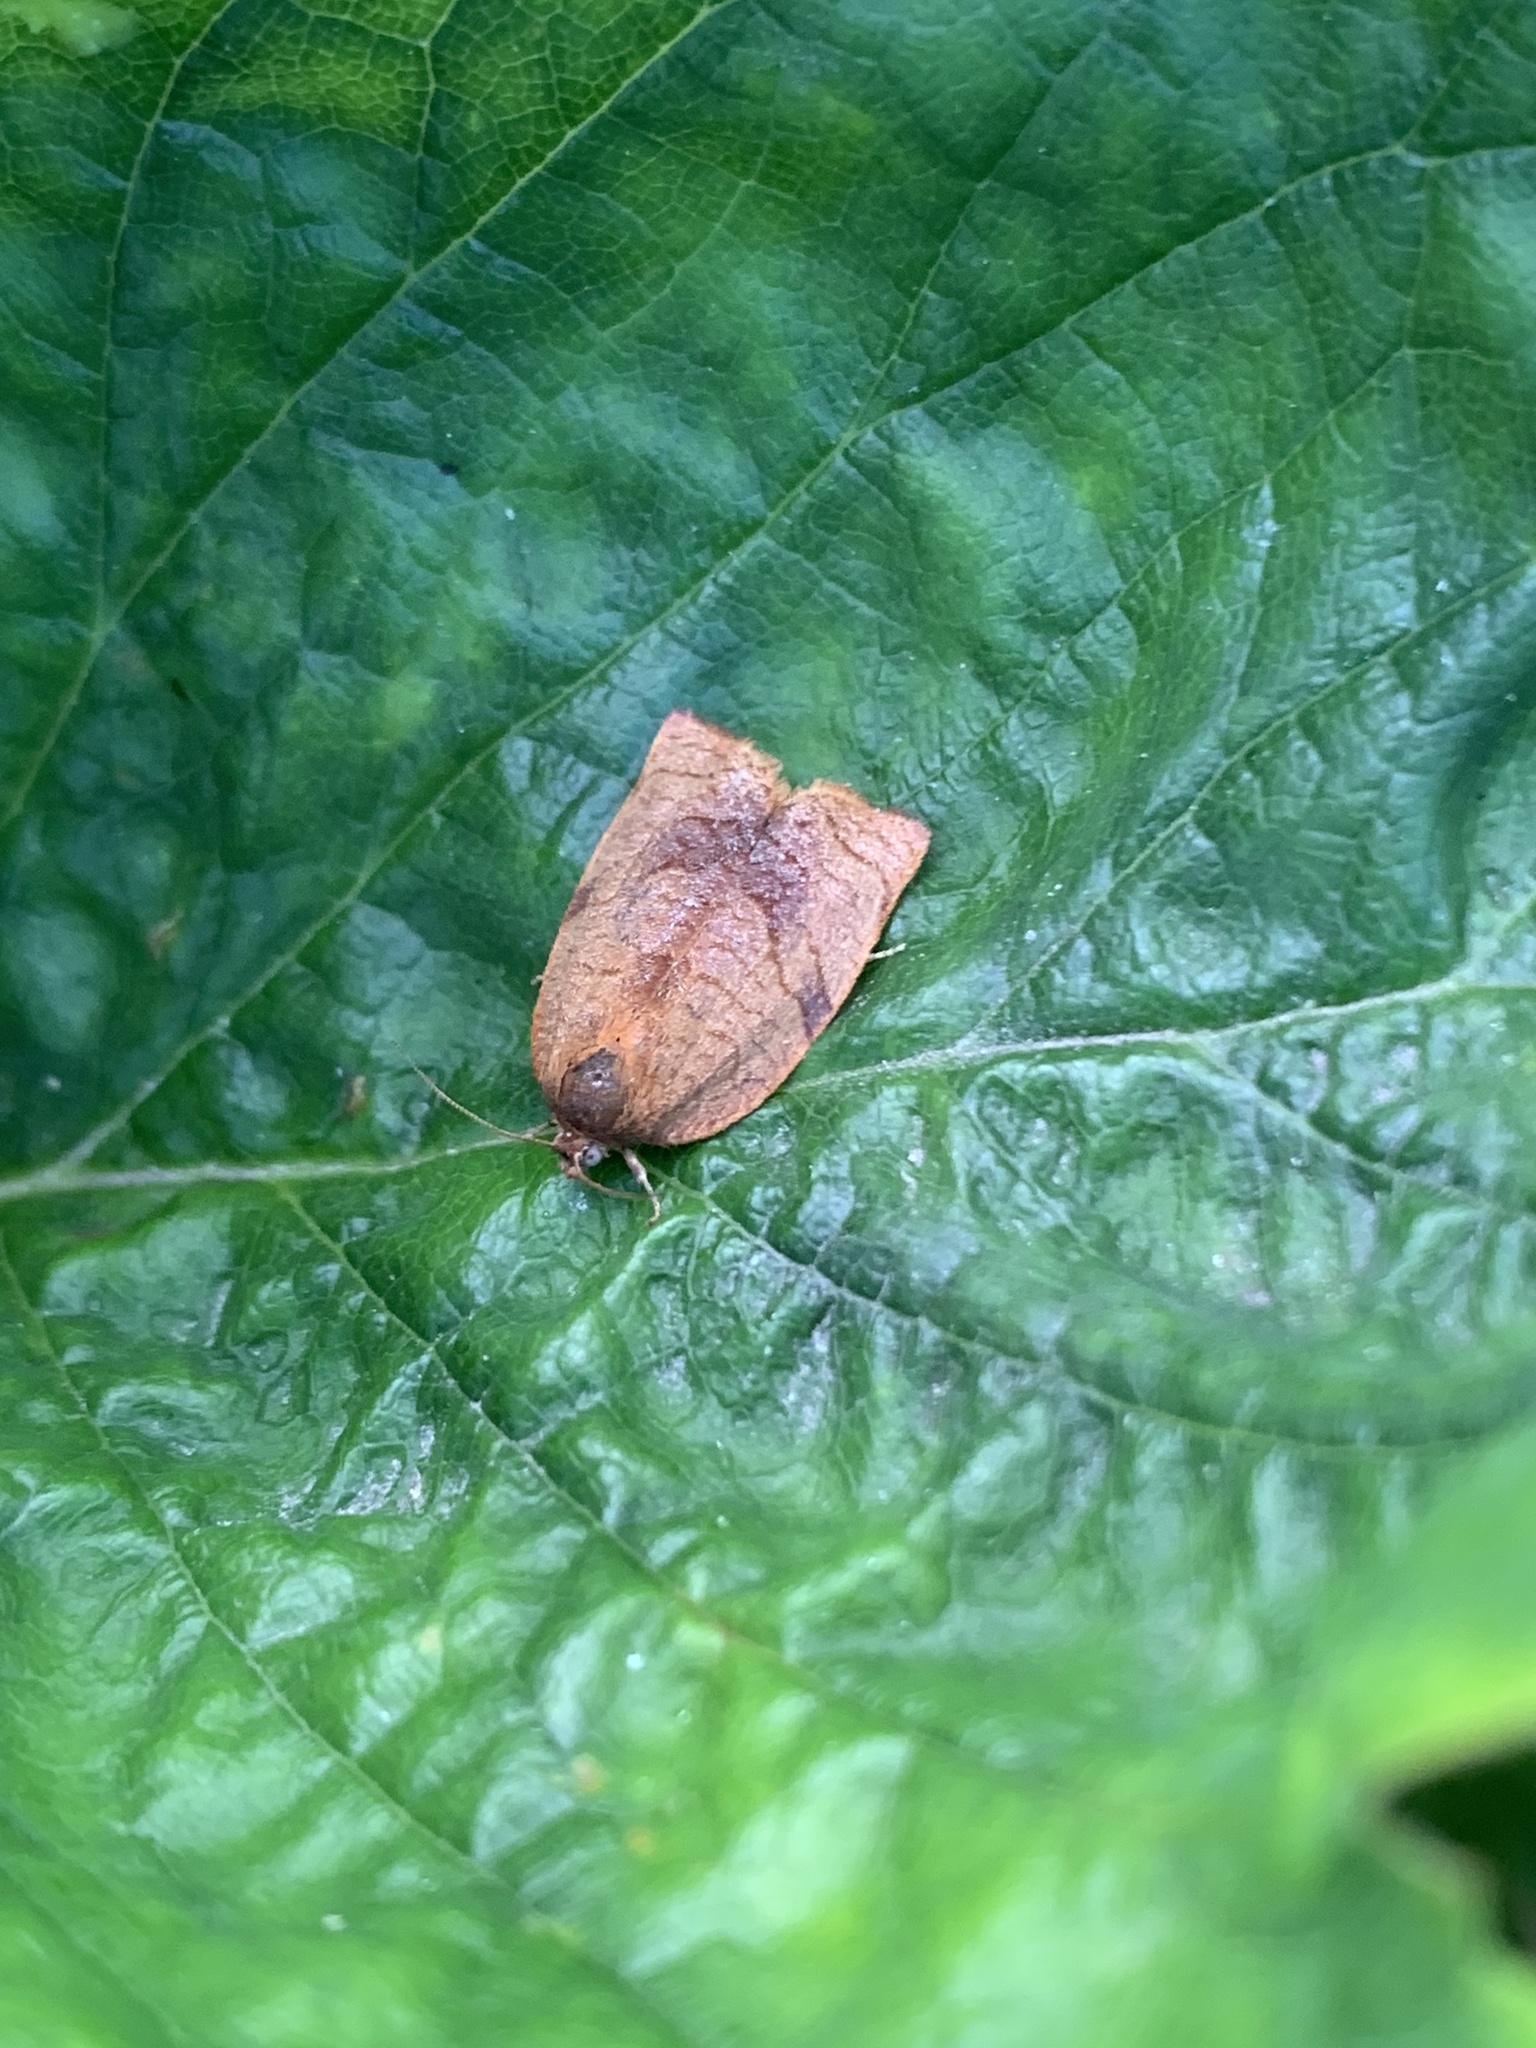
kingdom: Animalia
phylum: Arthropoda
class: Insecta
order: Lepidoptera
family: Tortricidae
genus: Archips
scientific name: Archips podana
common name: Large fruit-tree tortrix
